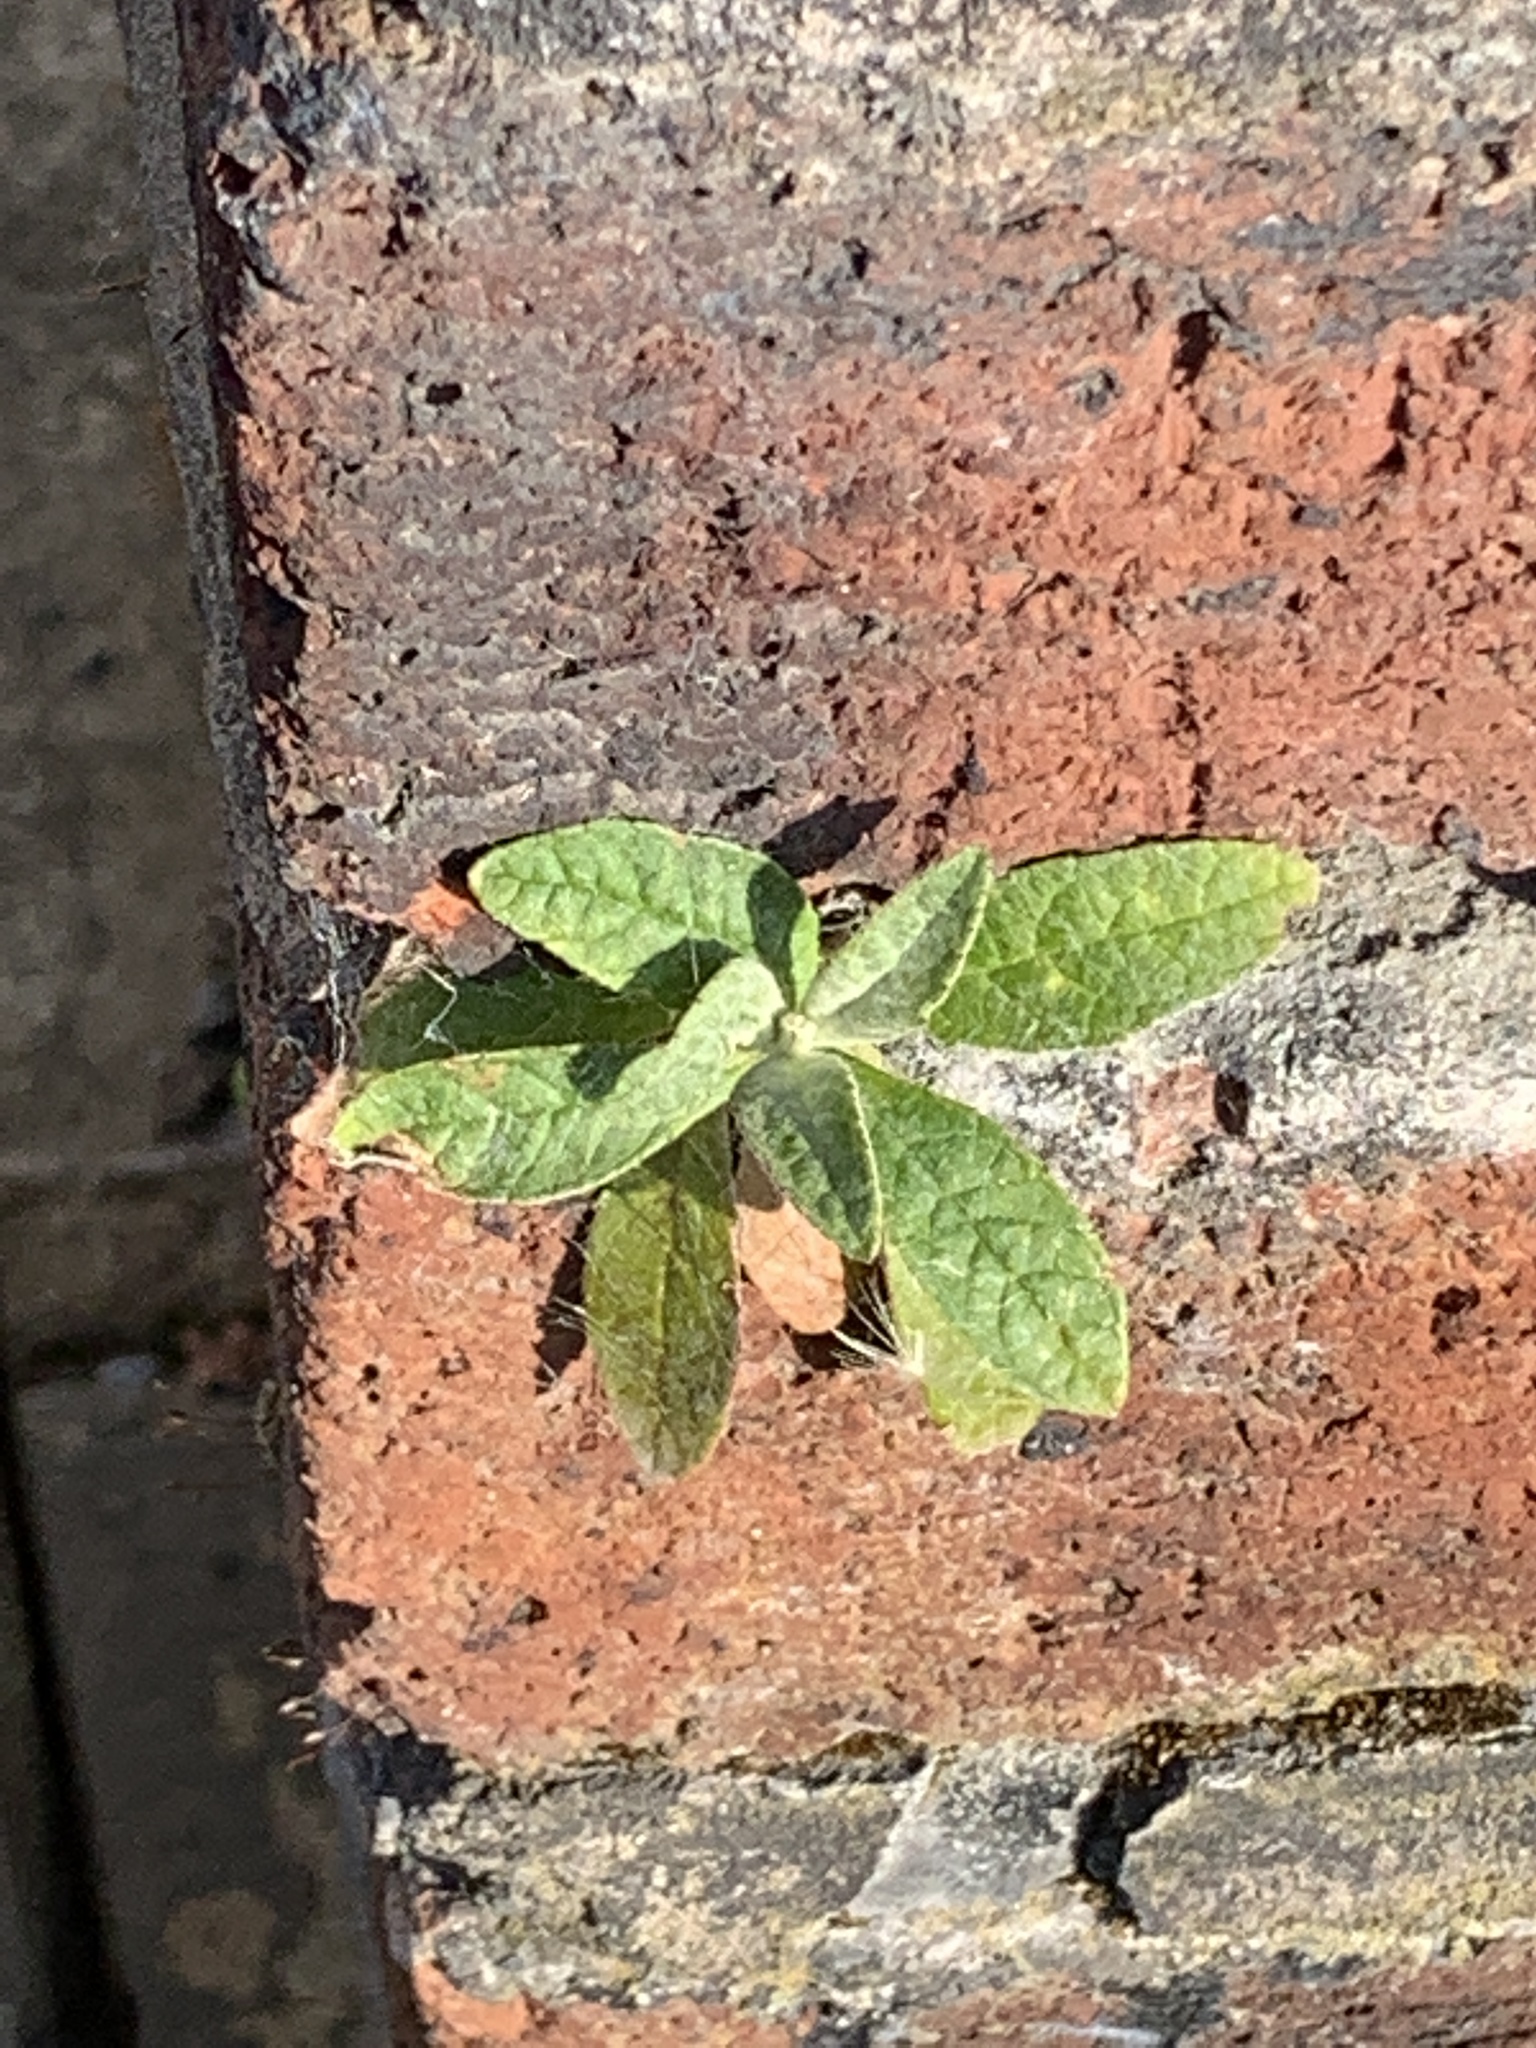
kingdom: Plantae
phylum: Tracheophyta
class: Magnoliopsida
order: Lamiales
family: Scrophulariaceae
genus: Buddleja
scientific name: Buddleja davidii
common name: Butterfly-bush
